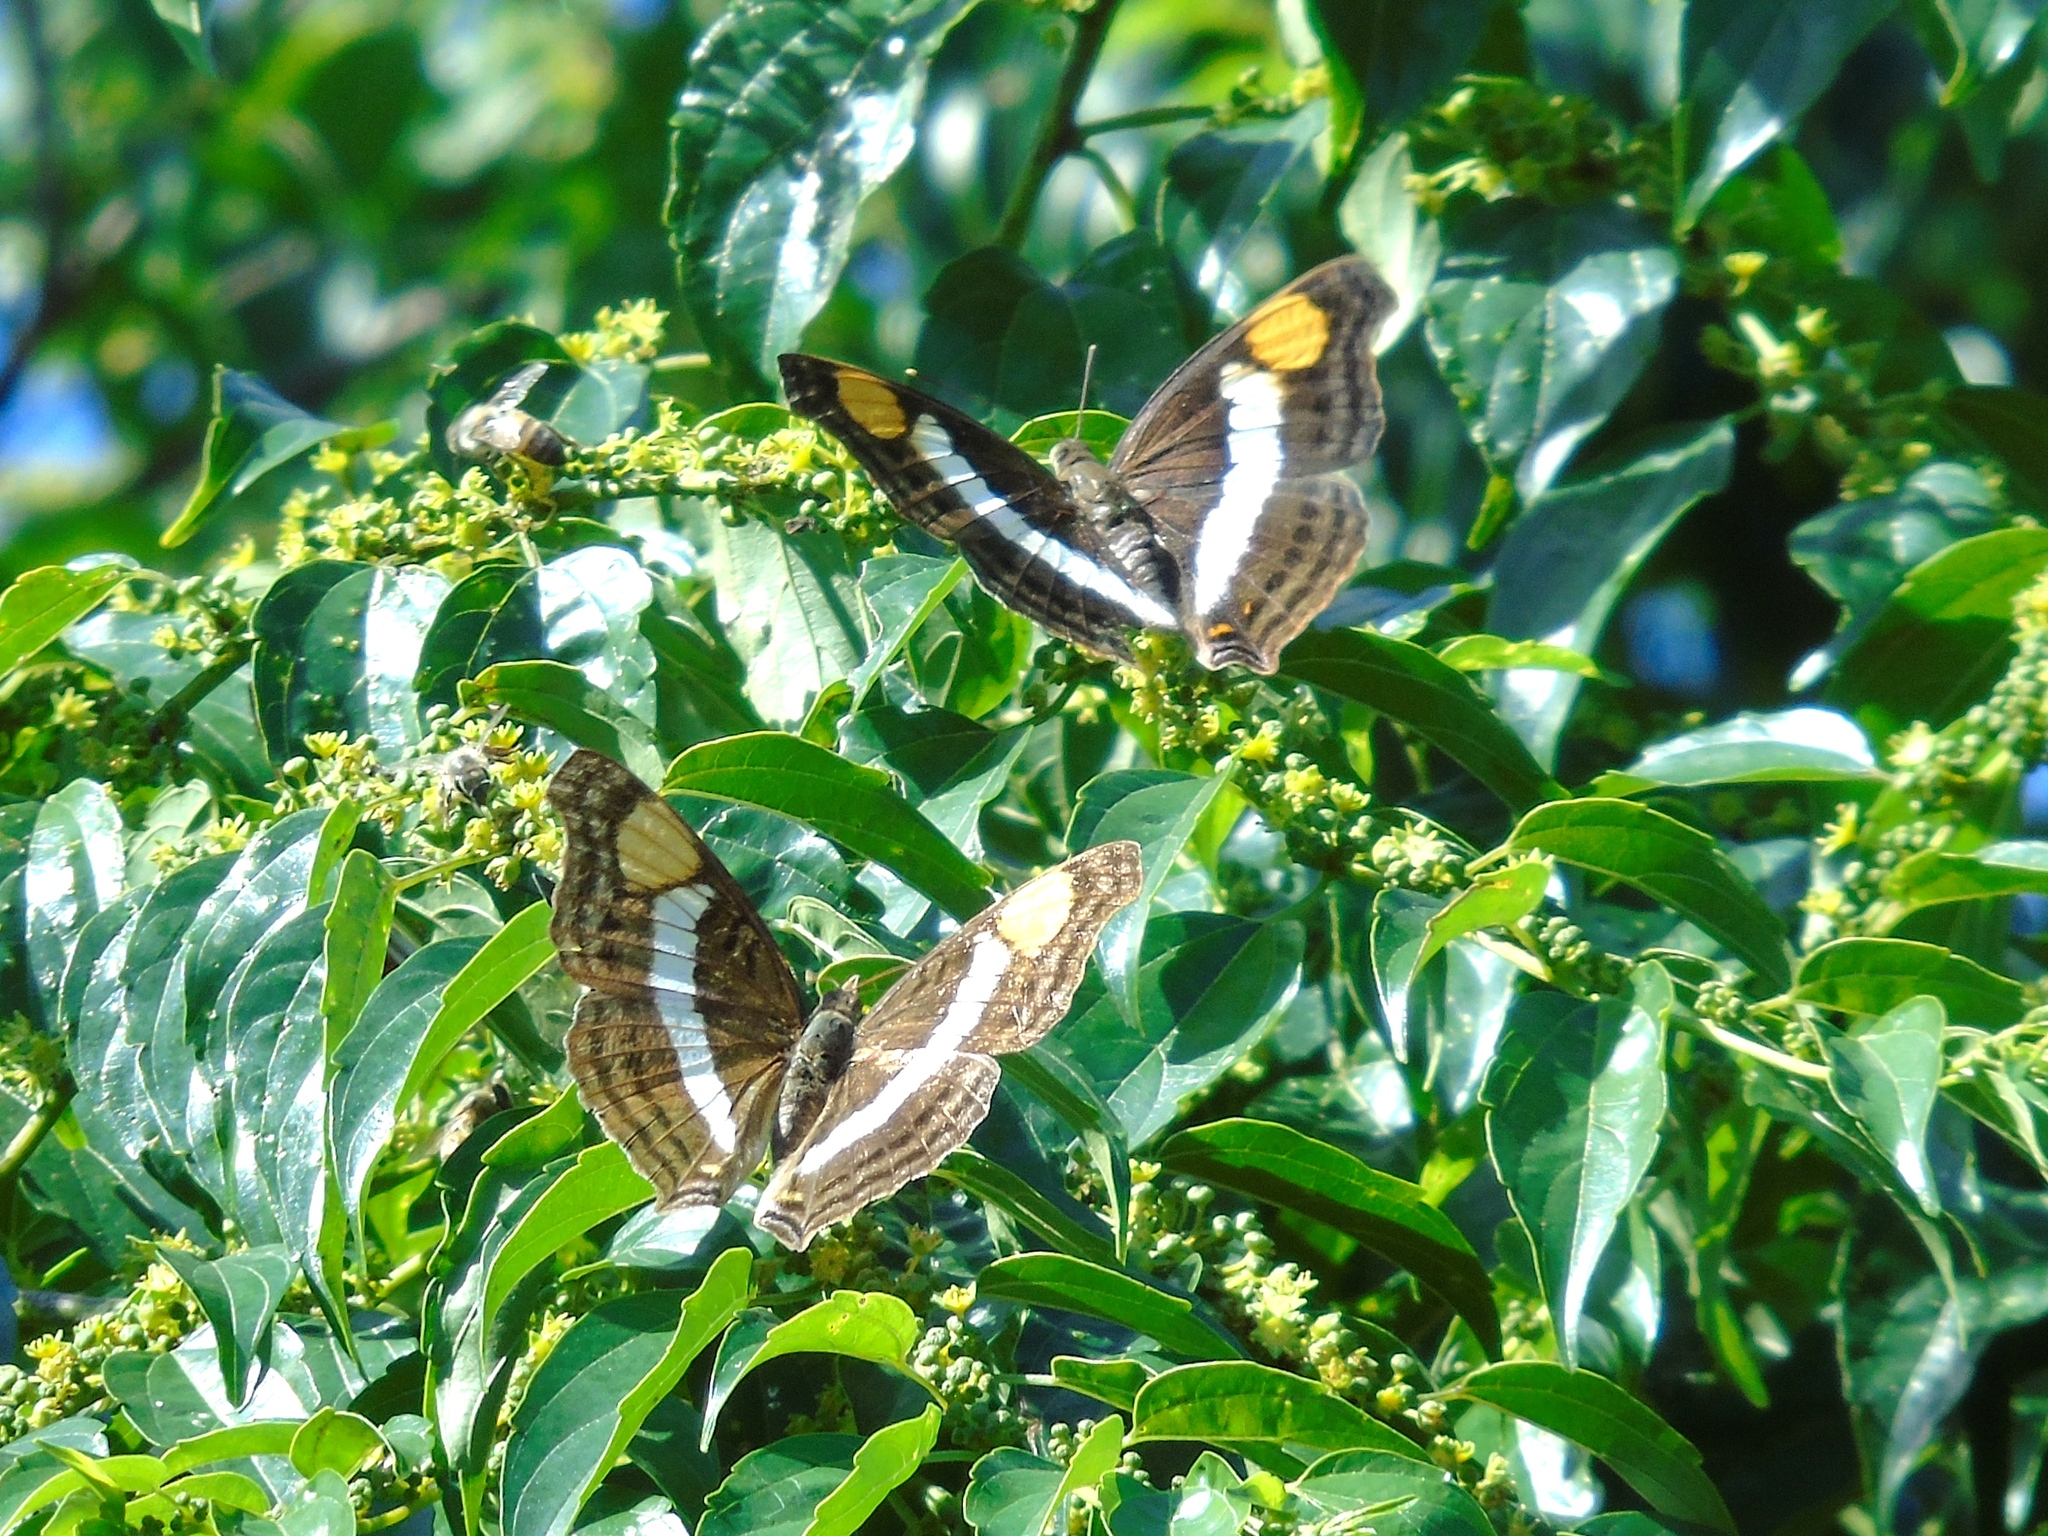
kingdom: Animalia
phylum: Arthropoda
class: Insecta
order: Lepidoptera
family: Nymphalidae
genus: Doxocopa
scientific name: Doxocopa laure
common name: Silver emperor
